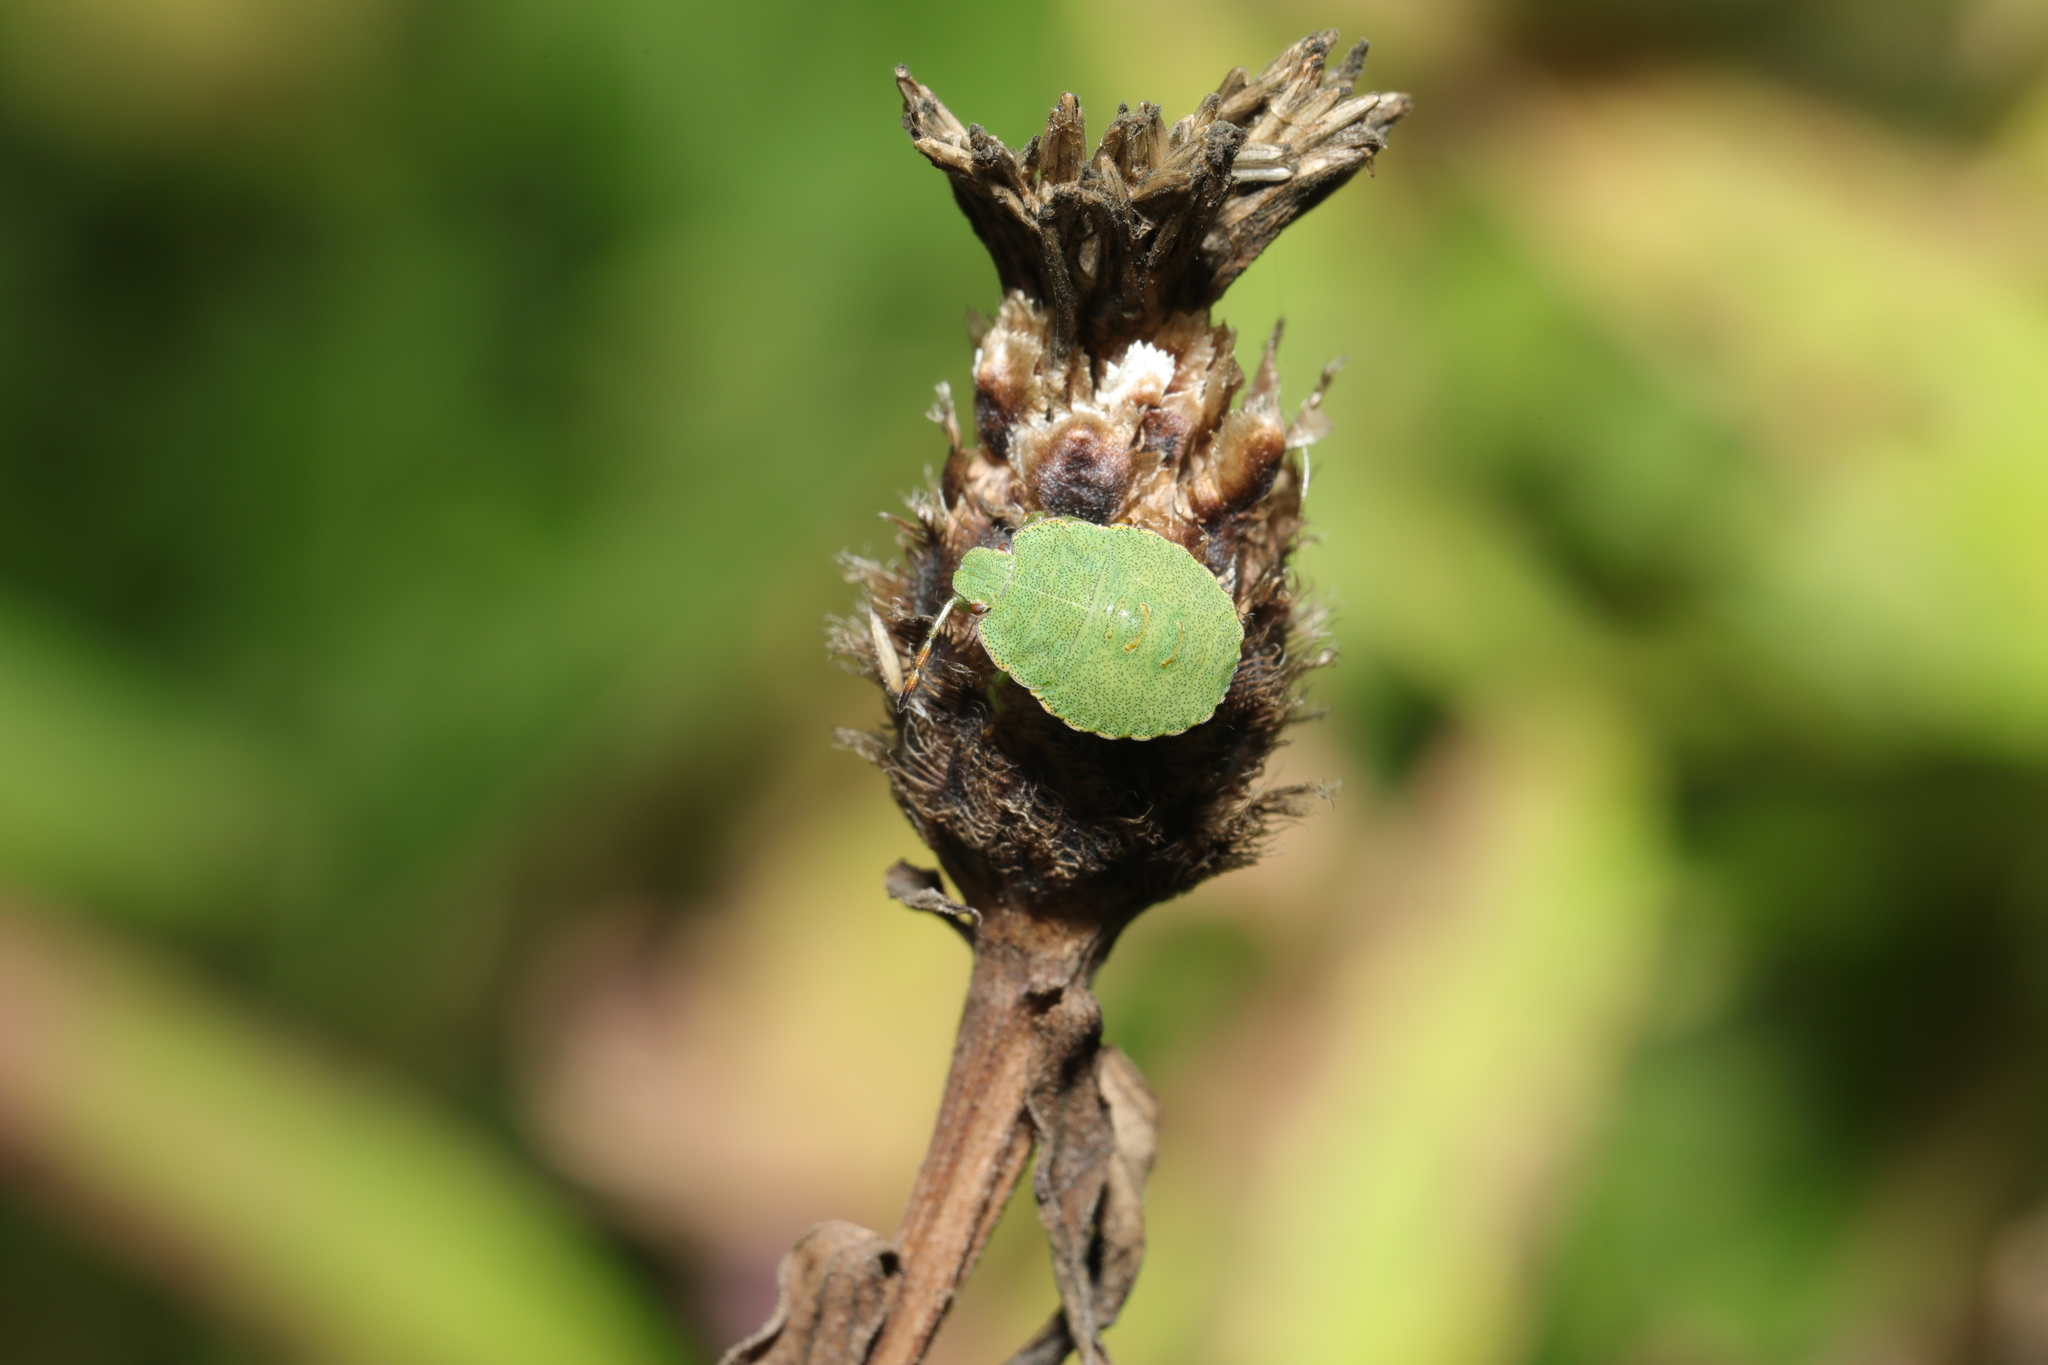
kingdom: Animalia
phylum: Arthropoda
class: Insecta
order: Hemiptera
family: Pentatomidae
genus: Palomena
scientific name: Palomena prasina
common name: Green shieldbug
